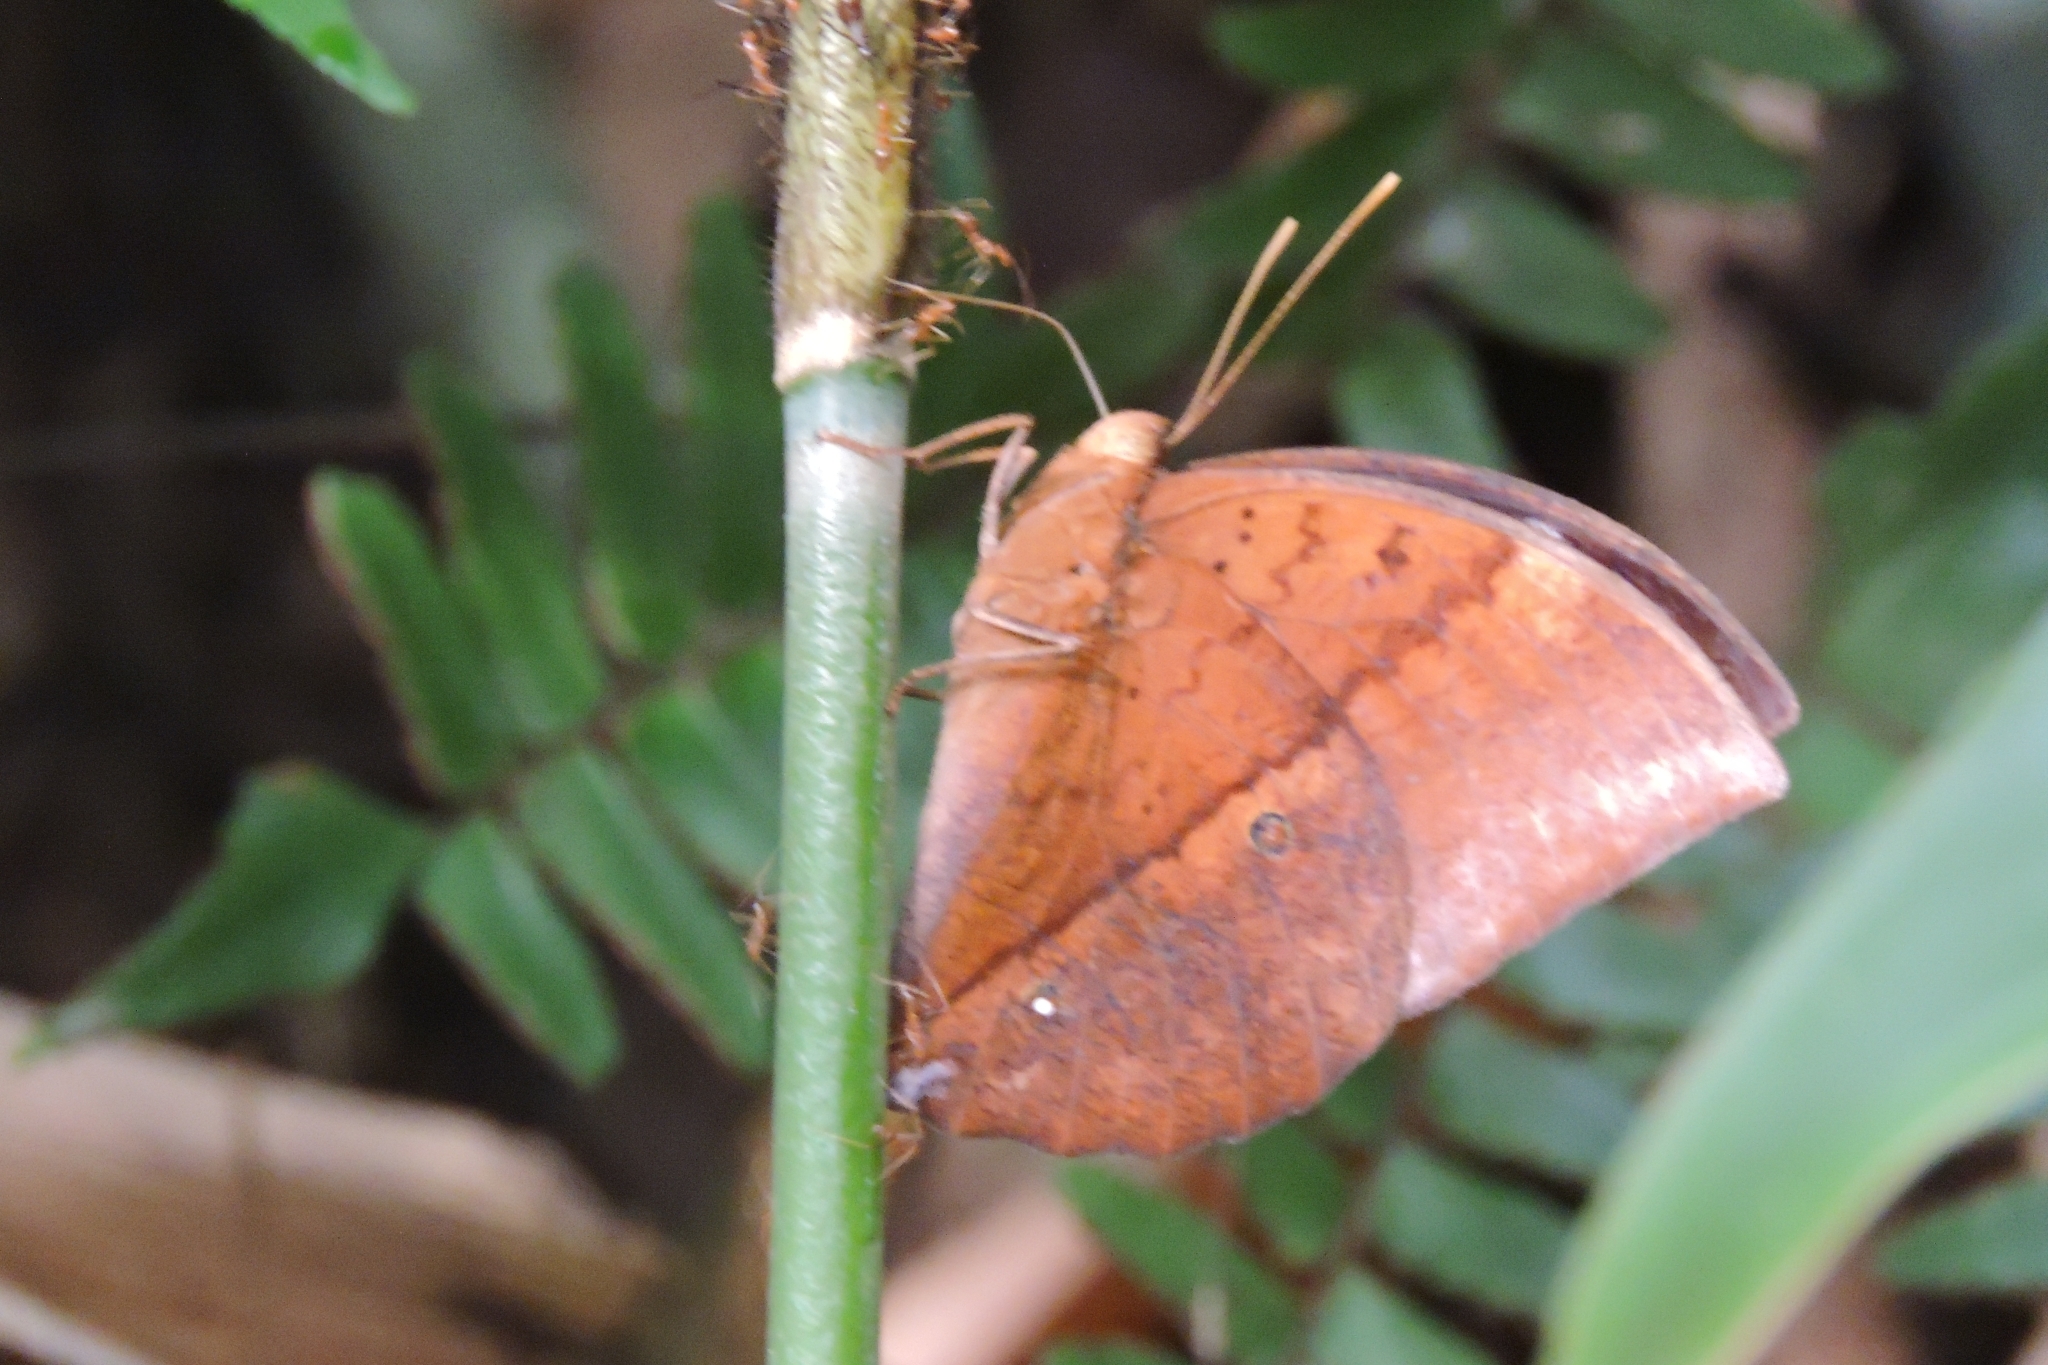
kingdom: Animalia
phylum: Arthropoda
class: Insecta
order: Lepidoptera
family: Nymphalidae
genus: Discophora
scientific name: Discophora lepida
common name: Southern duffer
